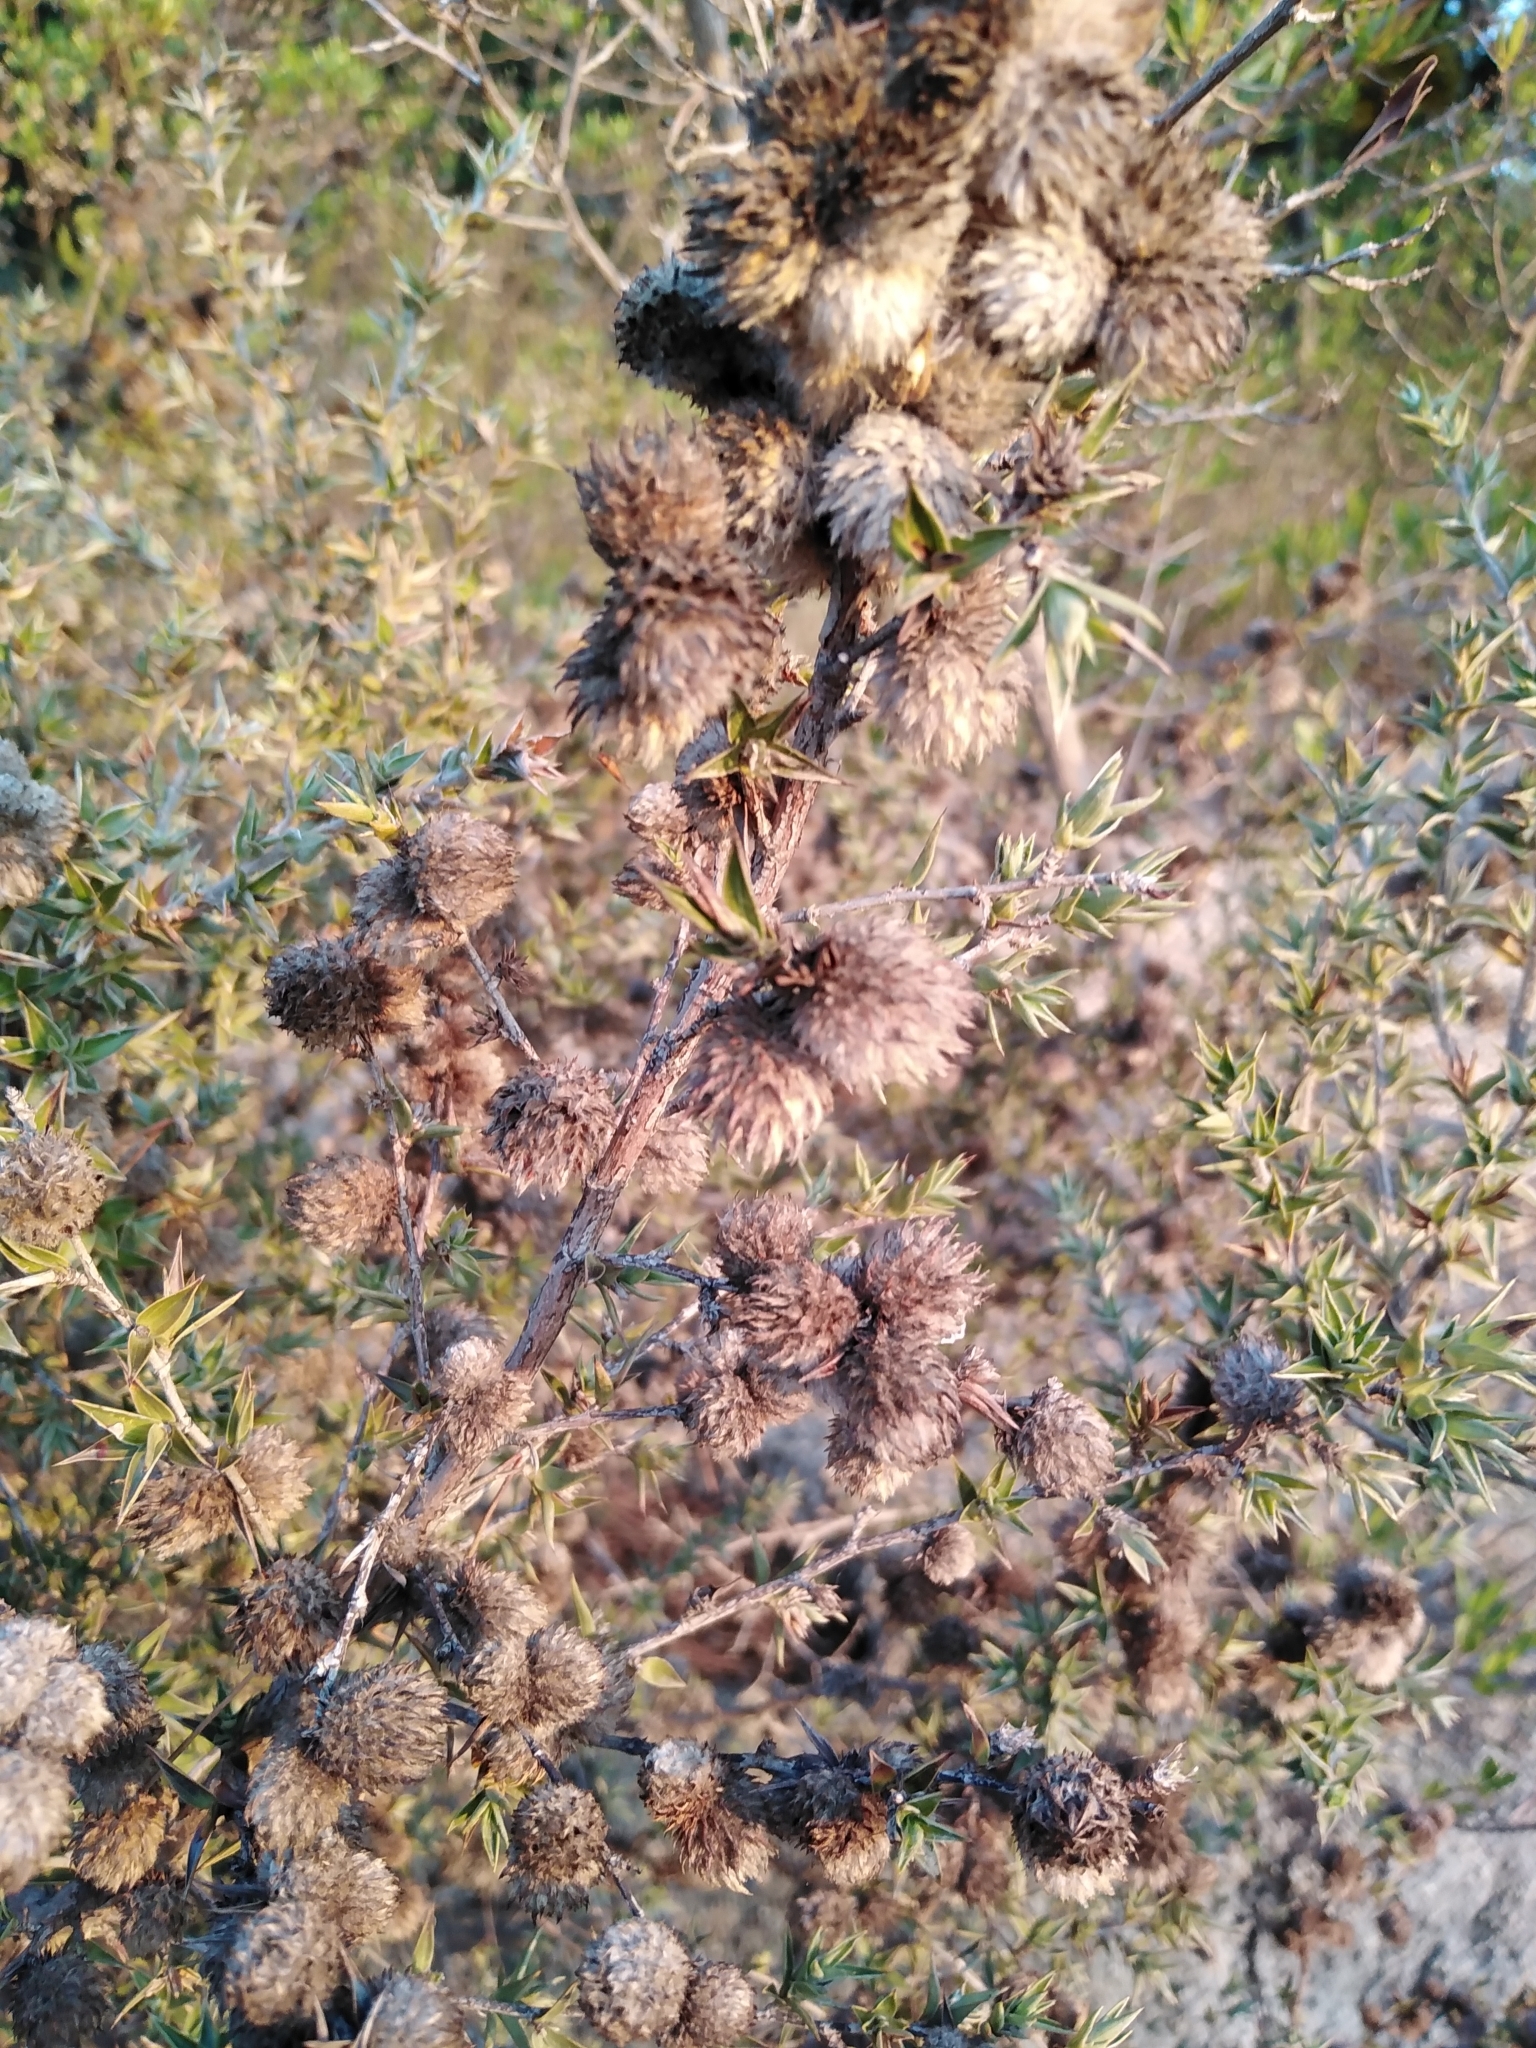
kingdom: Plantae
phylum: Tracheophyta
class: Magnoliopsida
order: Rosales
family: Rosaceae
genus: Cliffortia
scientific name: Cliffortia ruscifolia
